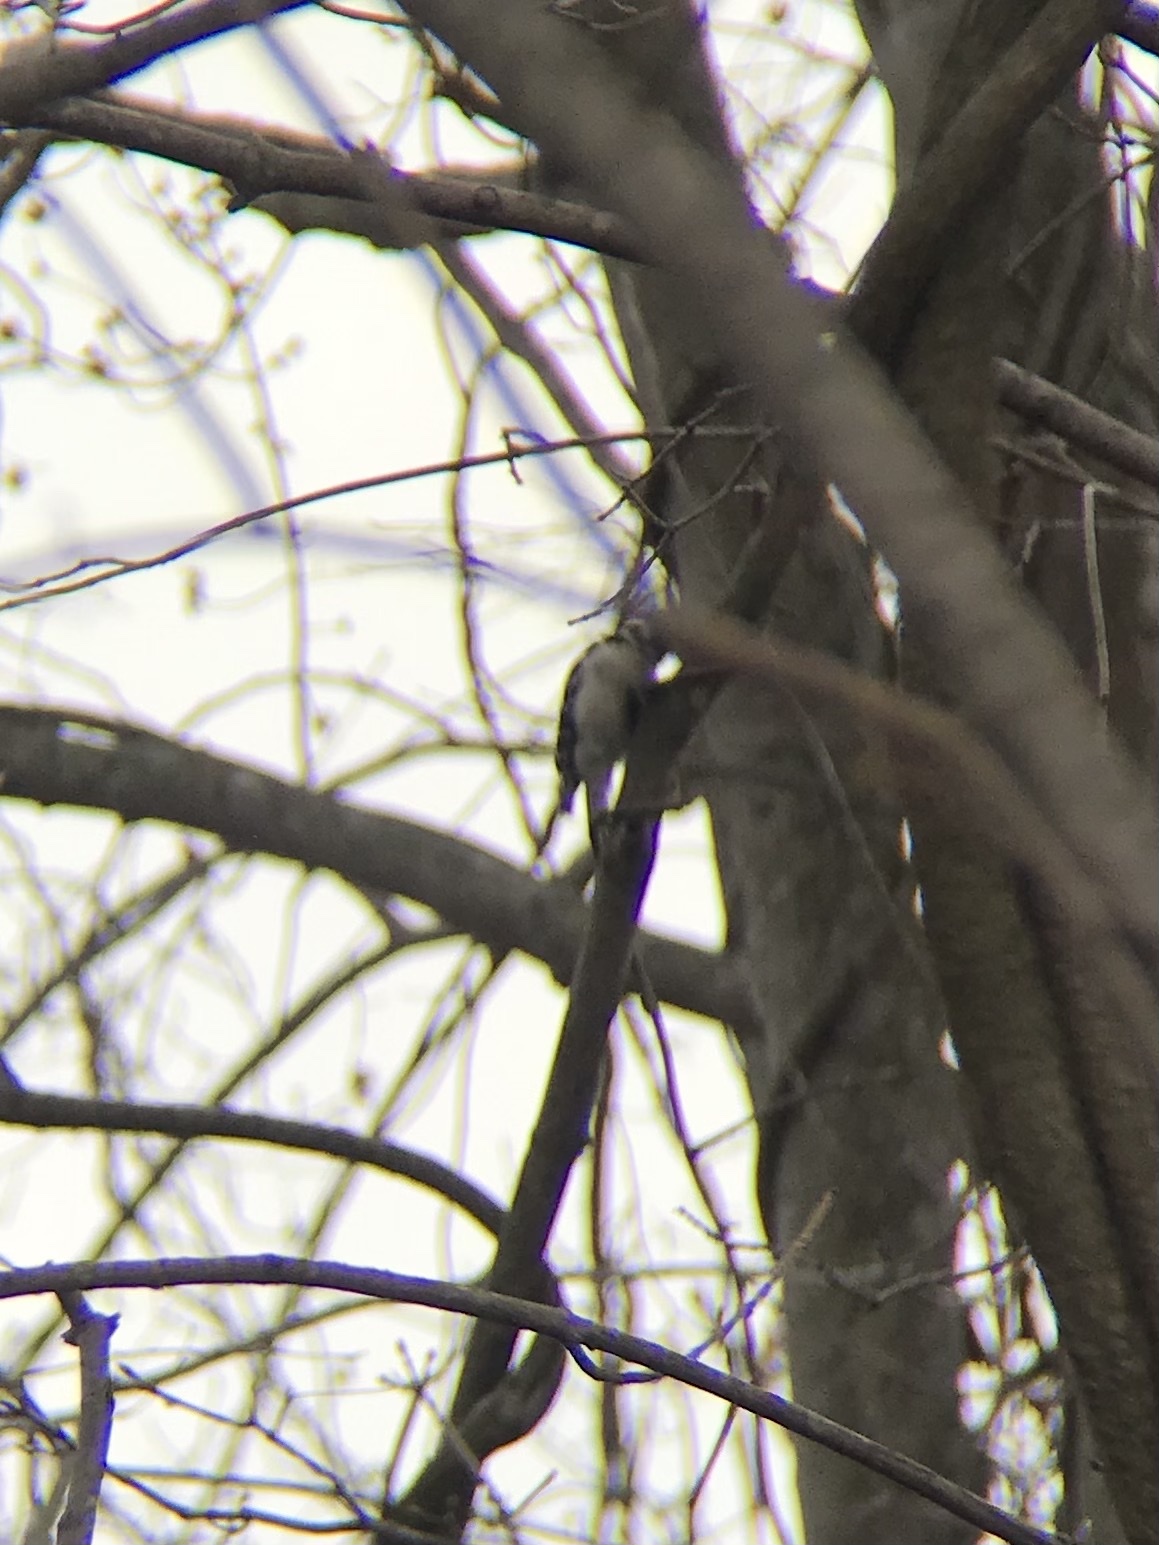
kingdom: Animalia
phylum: Chordata
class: Aves
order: Piciformes
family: Picidae
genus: Dryobates
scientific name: Dryobates pubescens
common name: Downy woodpecker
